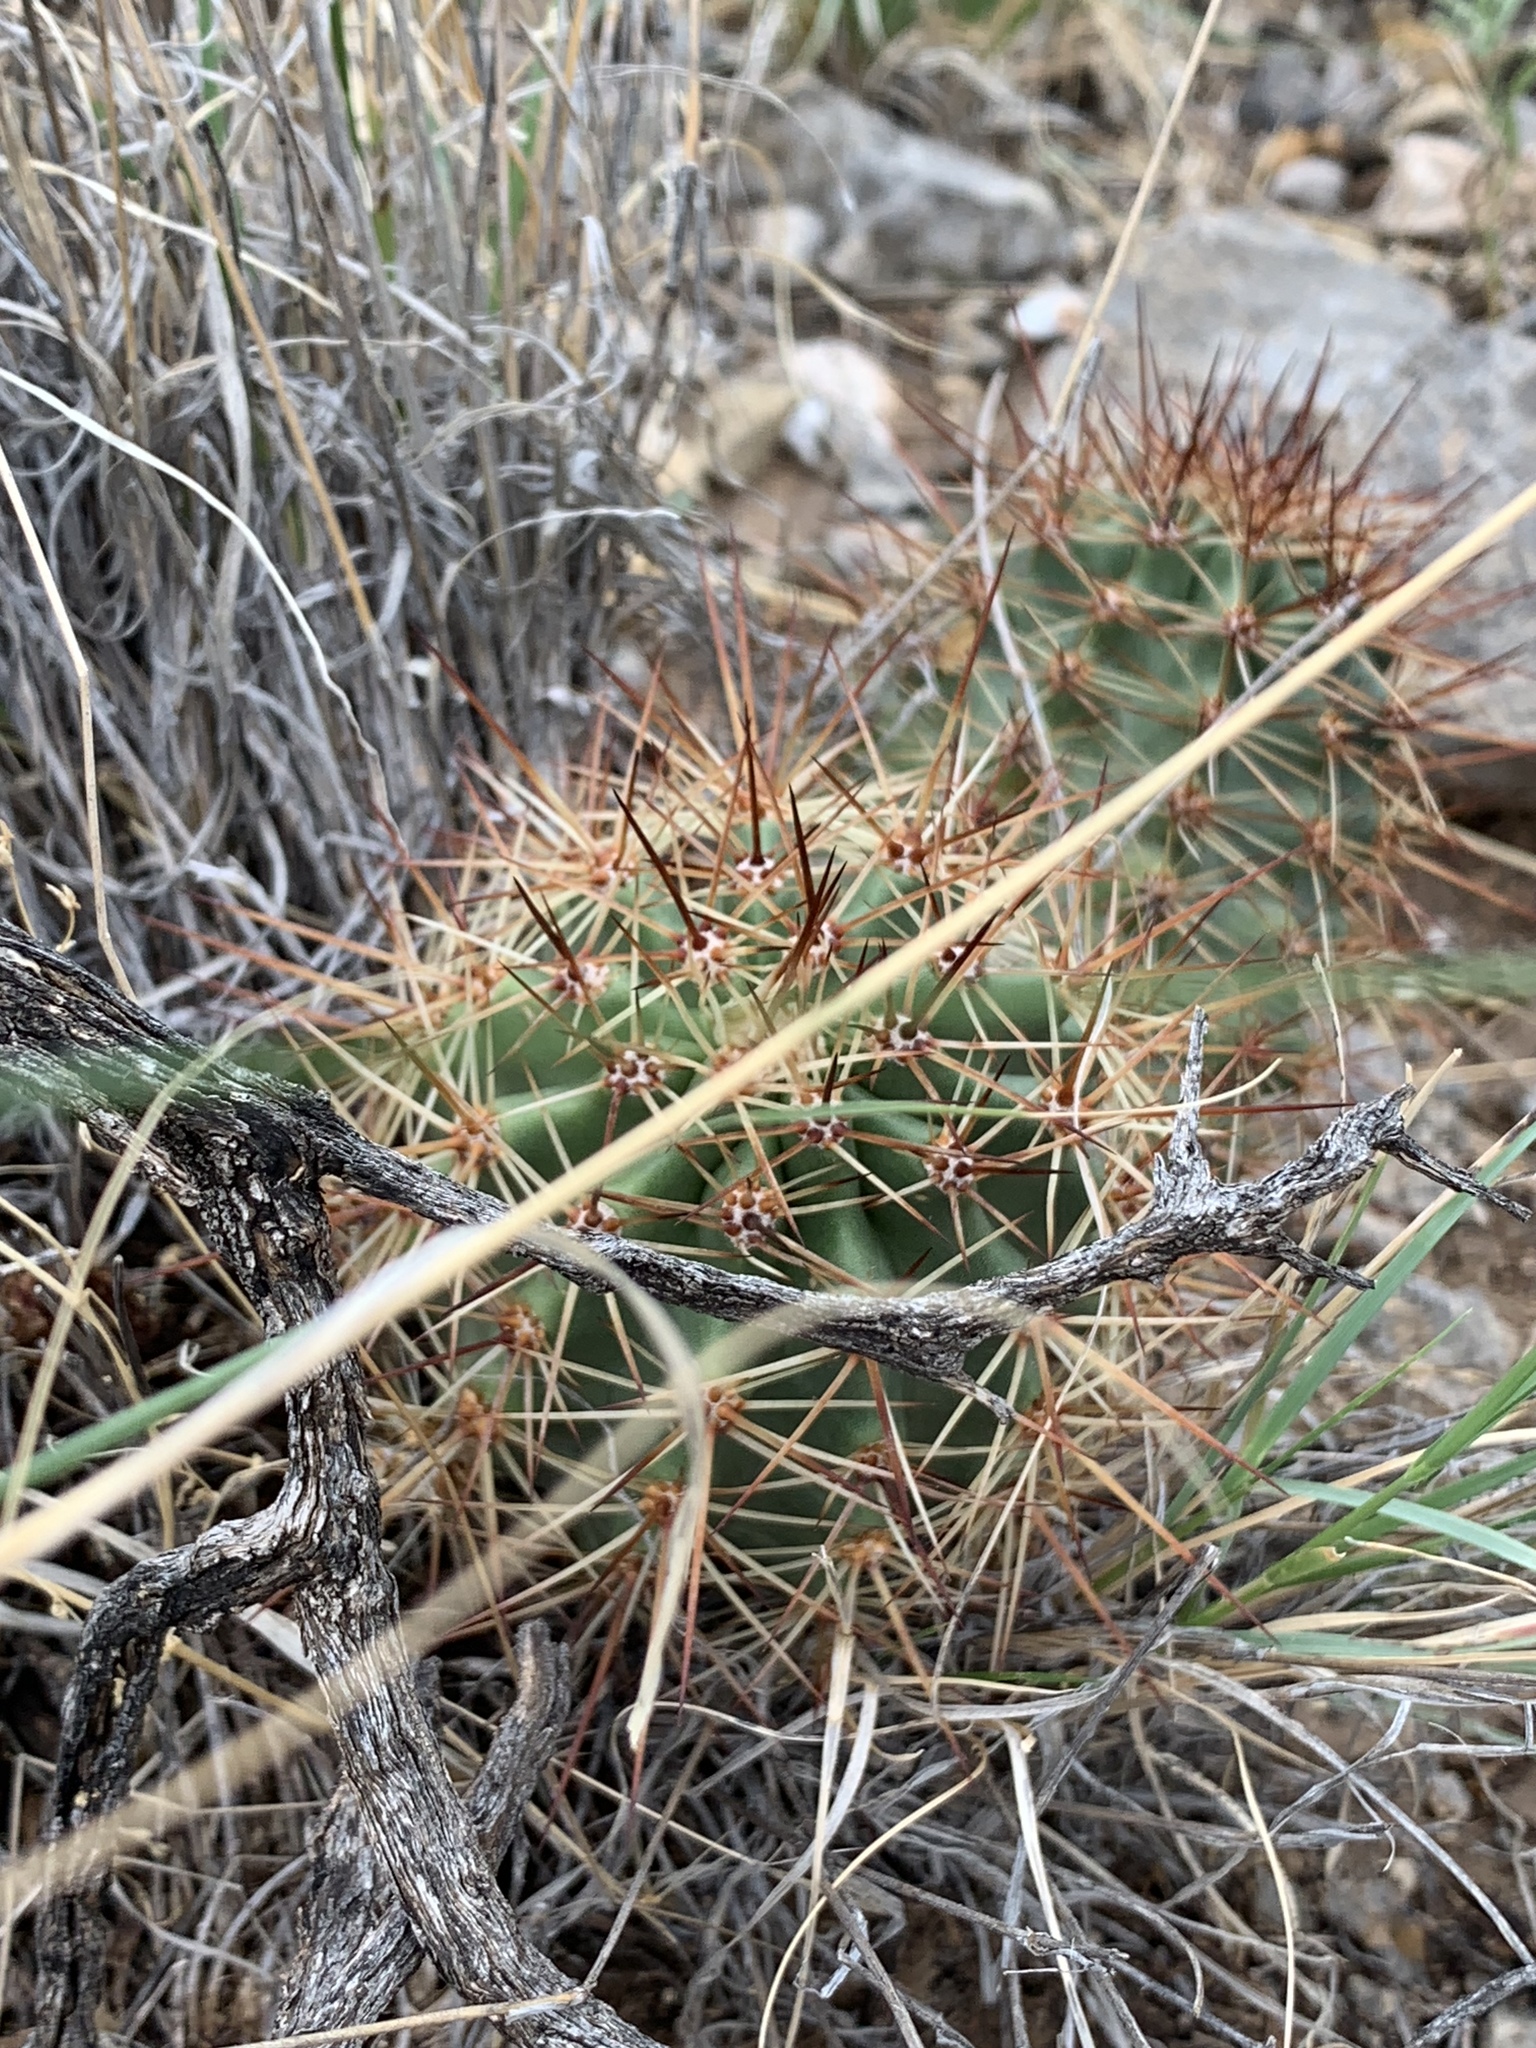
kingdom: Plantae
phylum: Tracheophyta
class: Magnoliopsida
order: Caryophyllales
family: Cactaceae
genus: Echinocereus
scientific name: Echinocereus coccineus
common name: Scarlet hedgehog cactus
